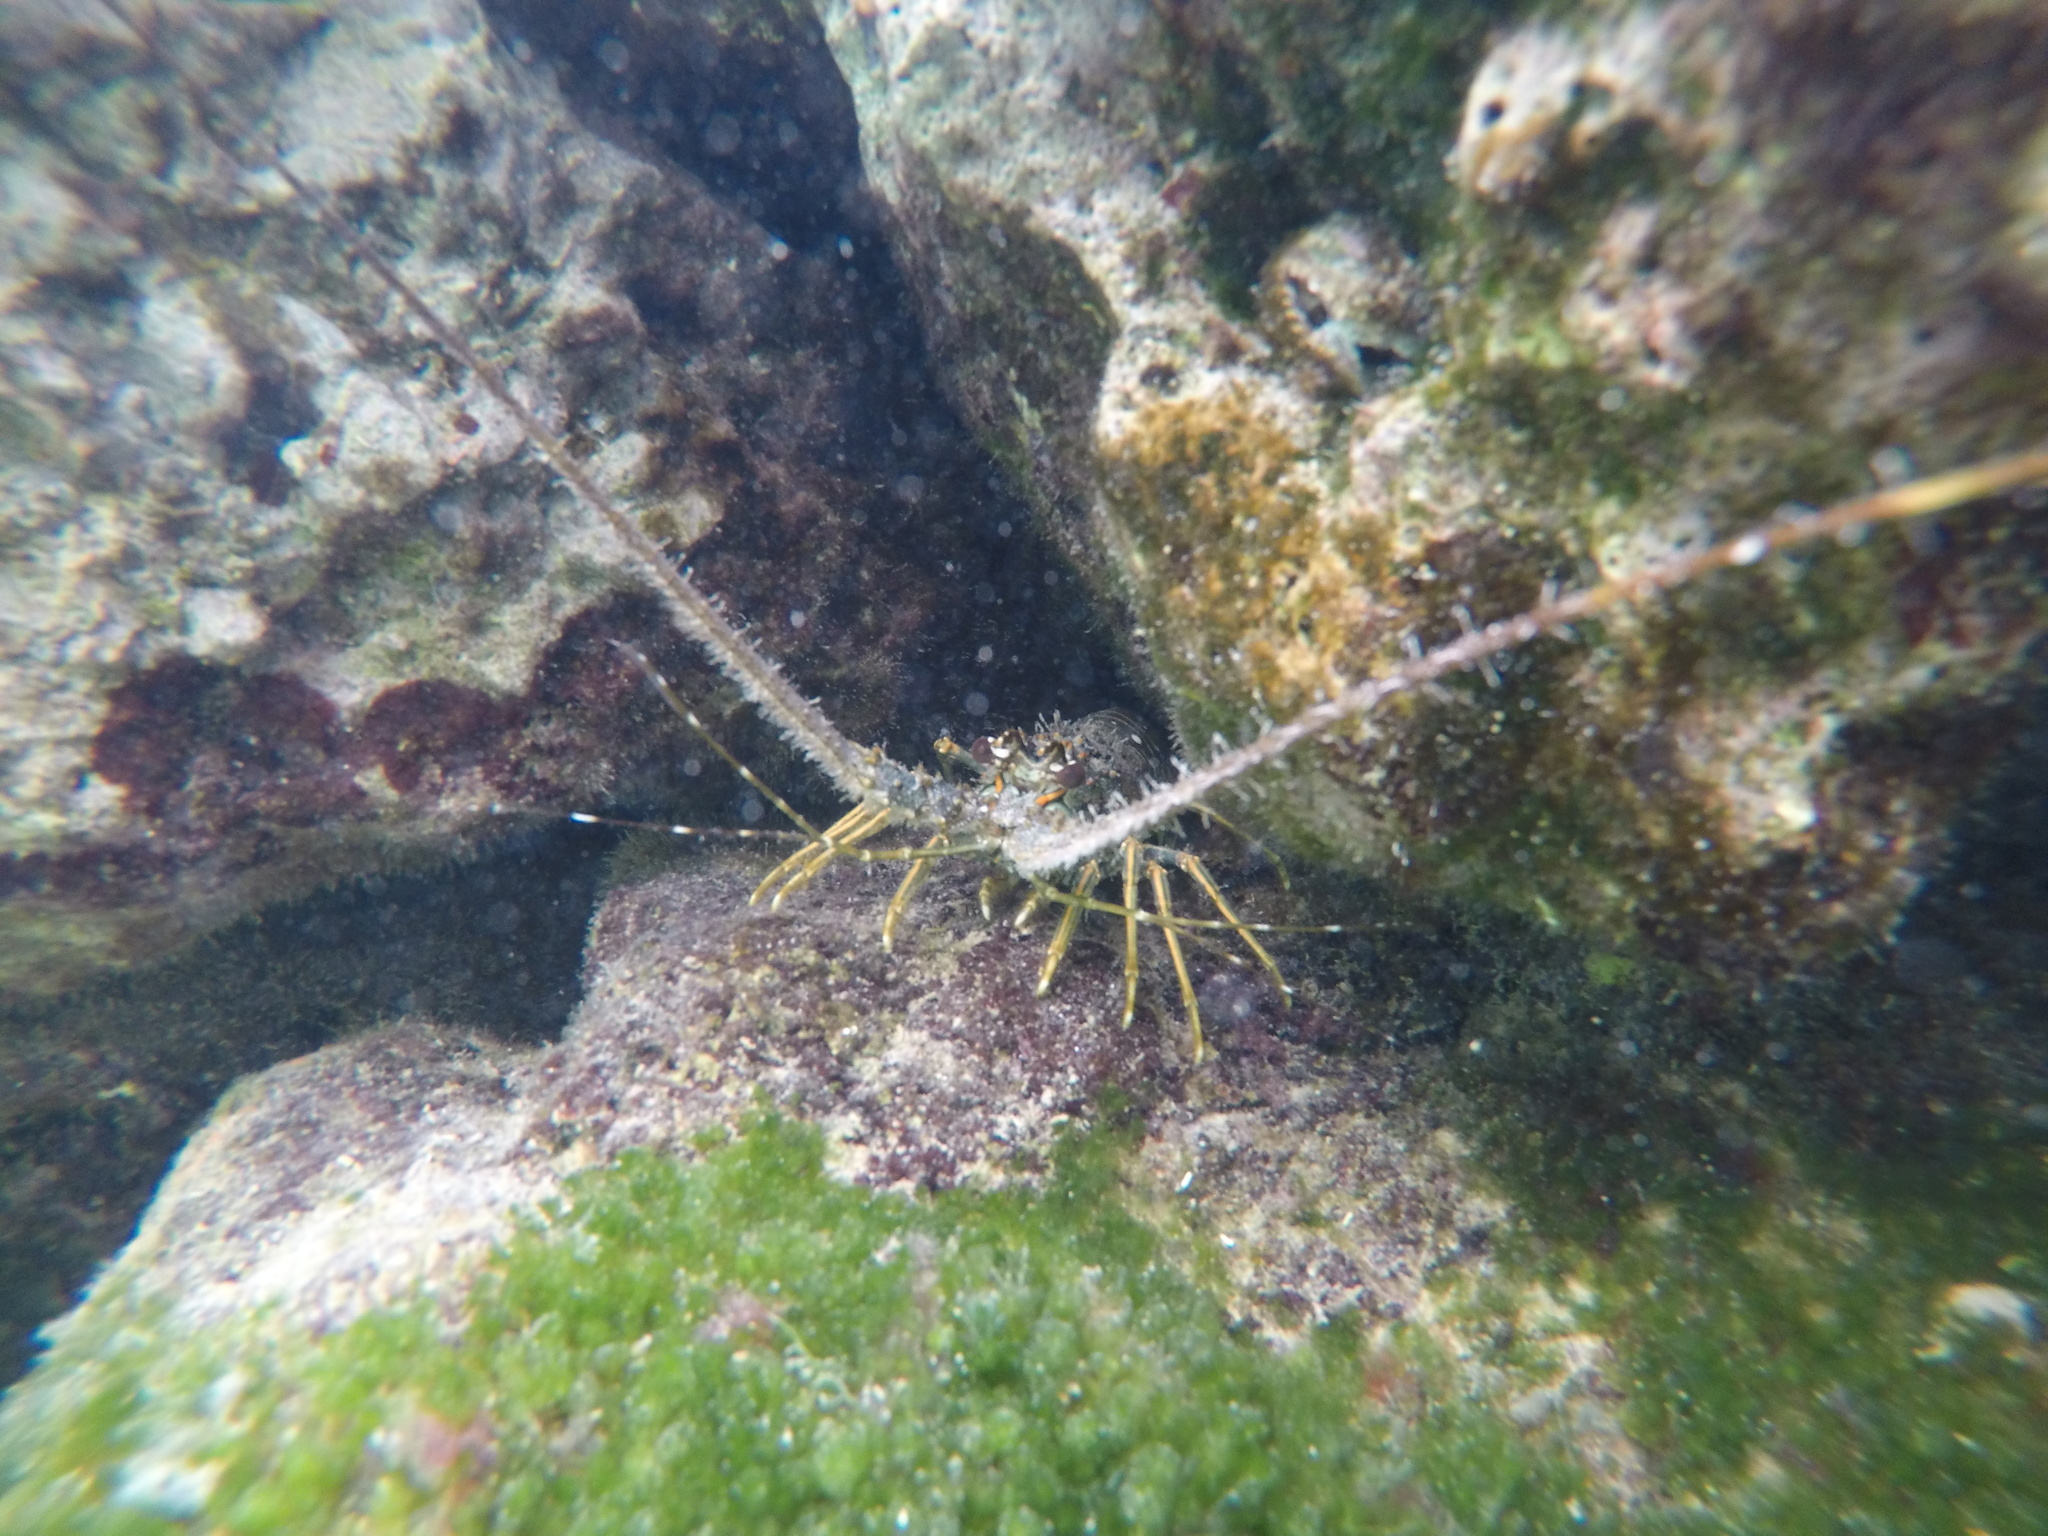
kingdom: Animalia
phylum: Arthropoda
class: Malacostraca
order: Decapoda
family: Palinuridae
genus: Panulirus
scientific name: Panulirus argus
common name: Caribbean spiny lobster
